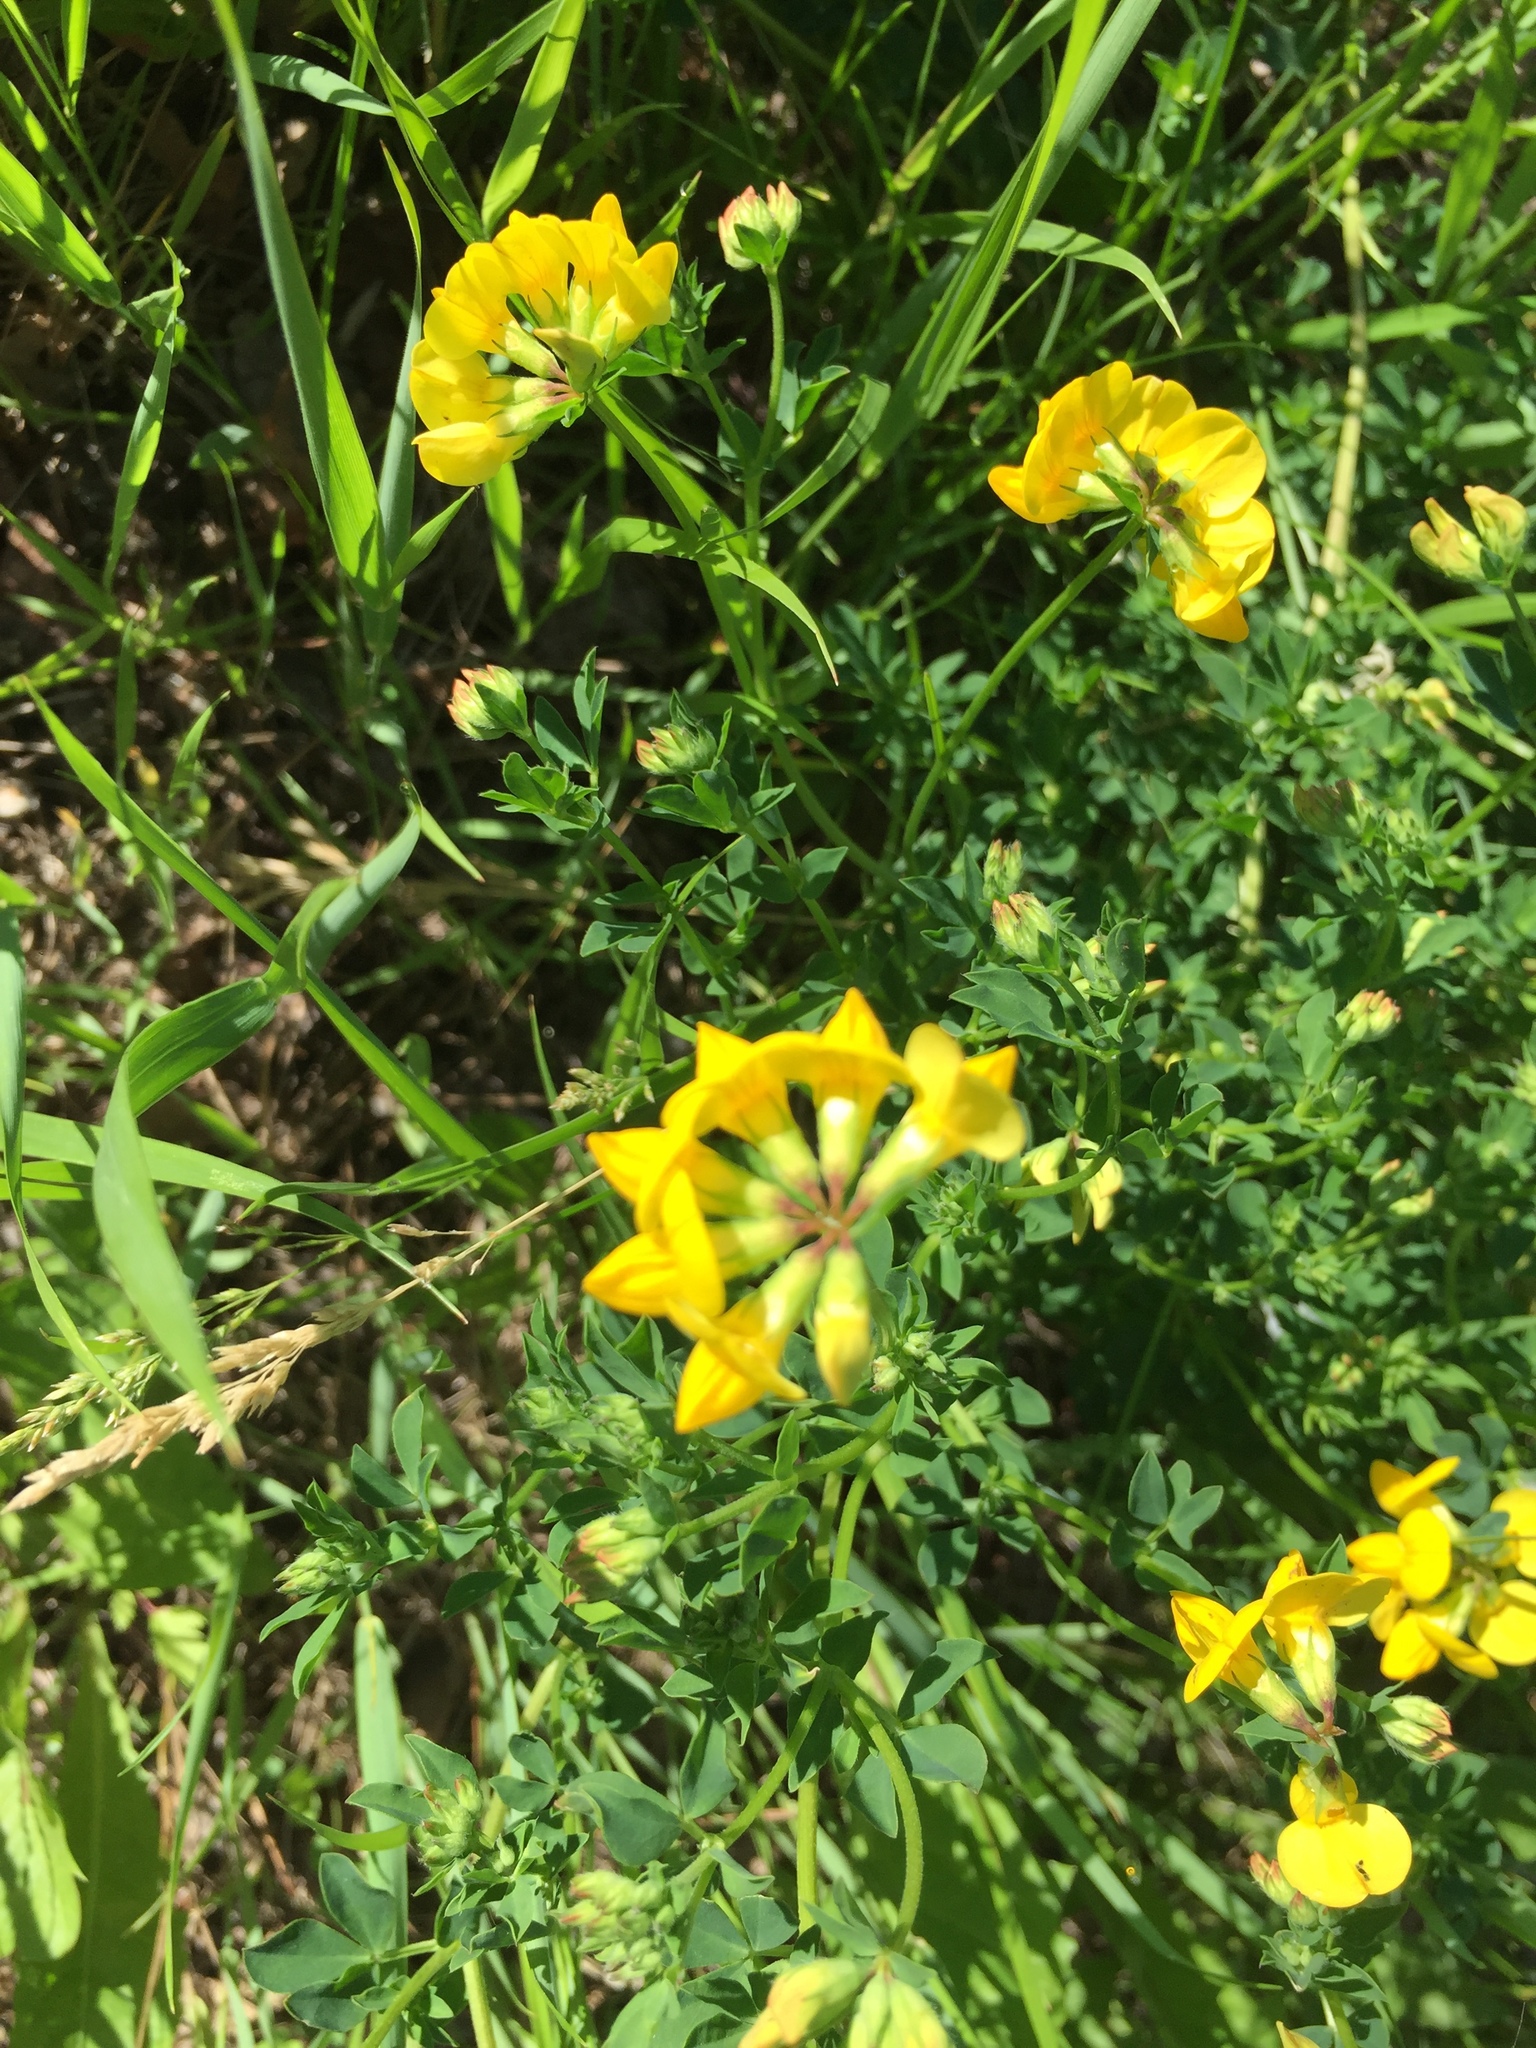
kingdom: Plantae
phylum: Tracheophyta
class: Magnoliopsida
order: Fabales
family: Fabaceae
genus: Lotus
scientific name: Lotus corniculatus
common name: Common bird's-foot-trefoil
